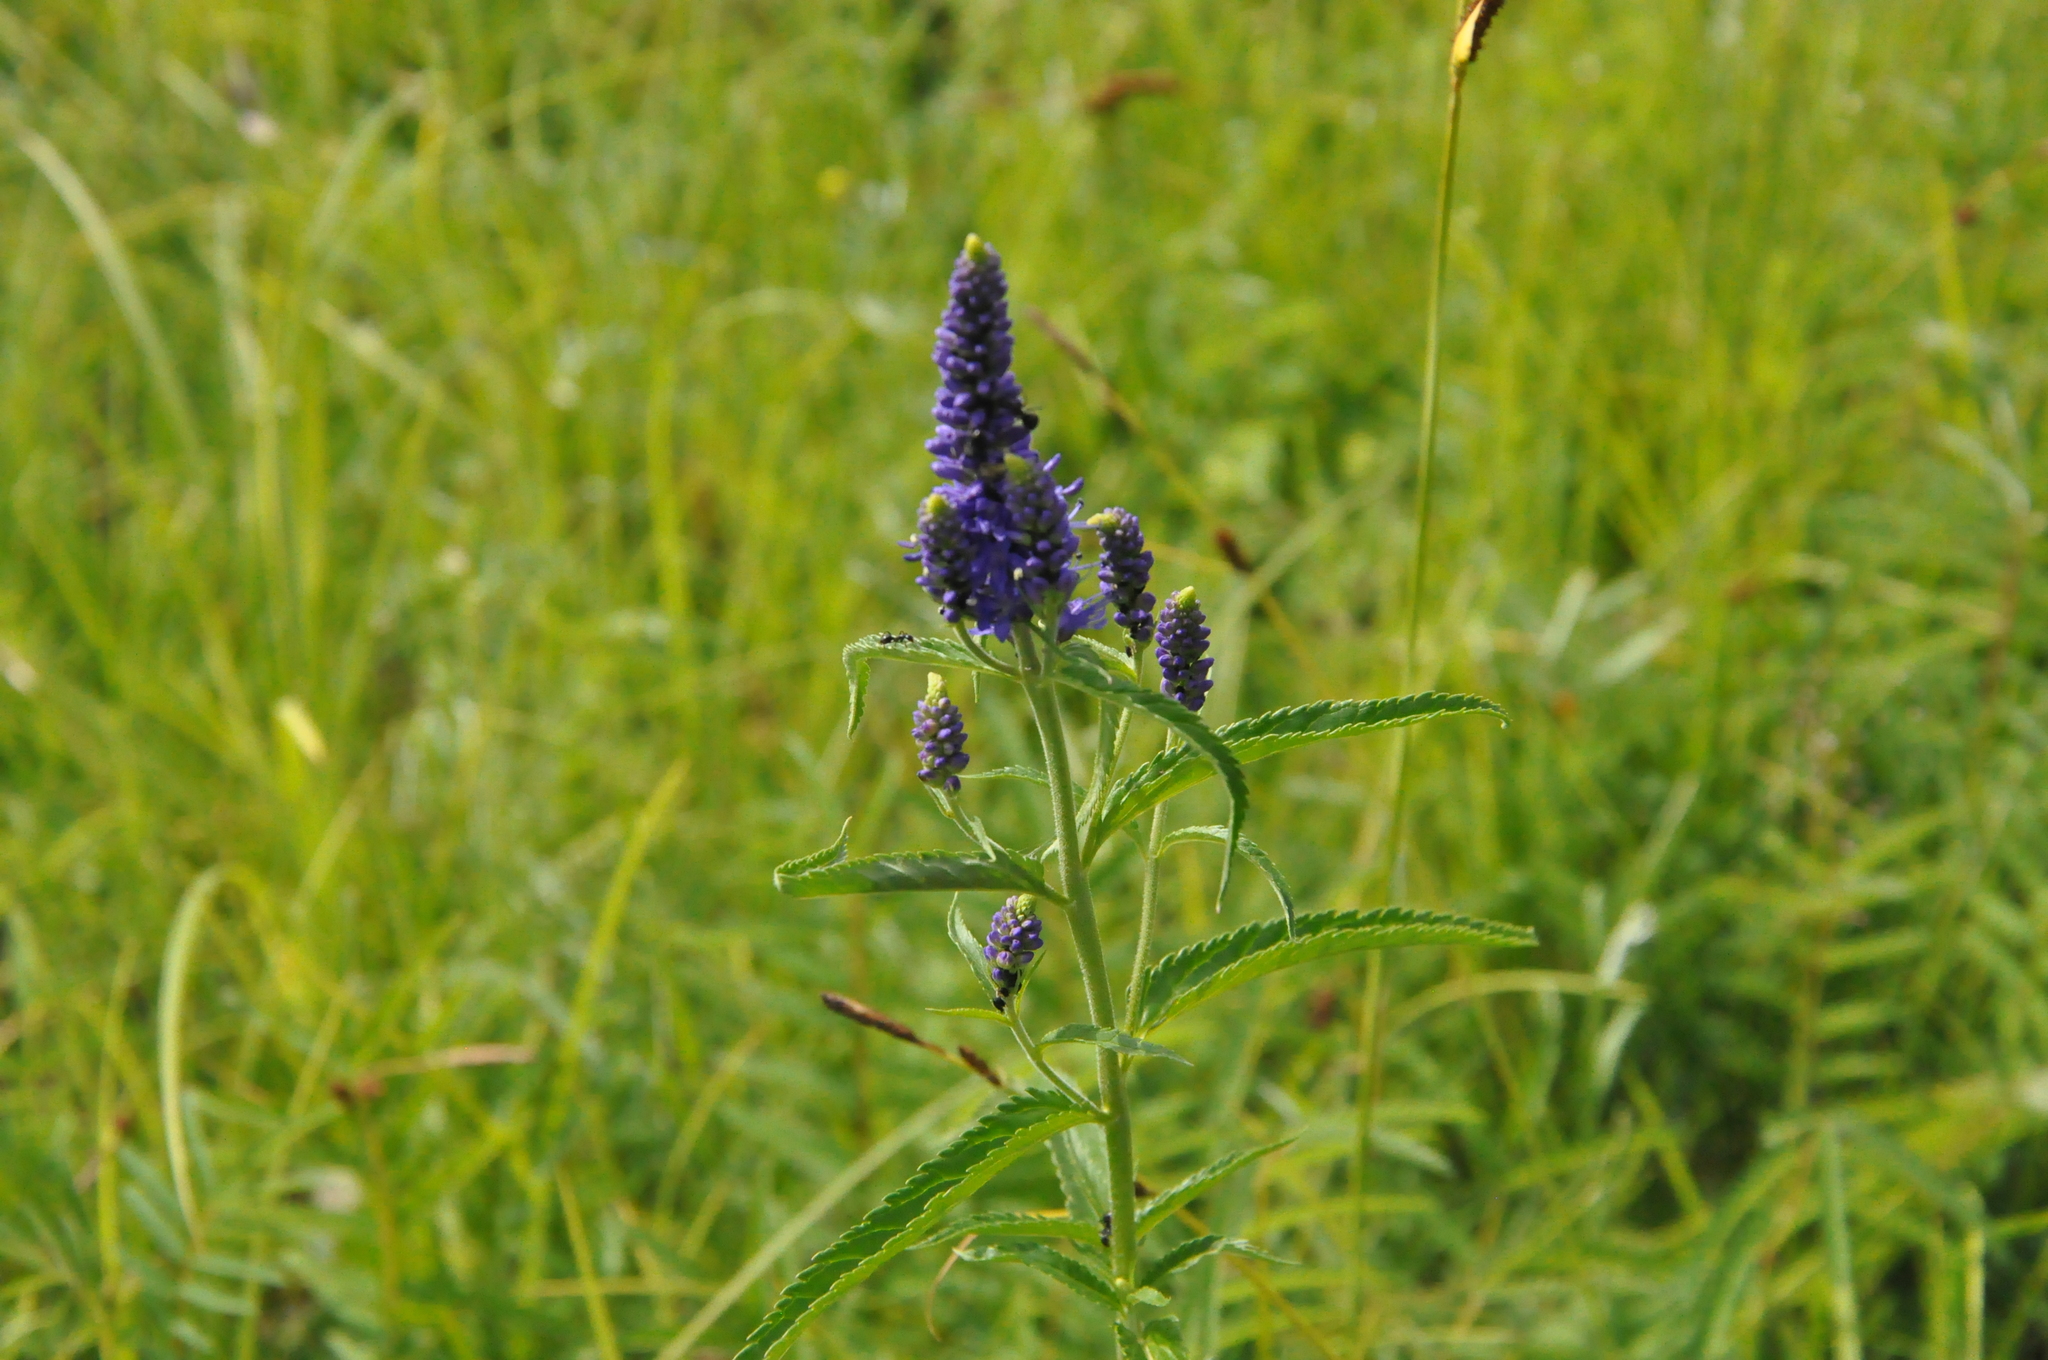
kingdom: Plantae
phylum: Tracheophyta
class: Magnoliopsida
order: Lamiales
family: Plantaginaceae
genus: Veronica
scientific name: Veronica longifolia
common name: Garden speedwell
